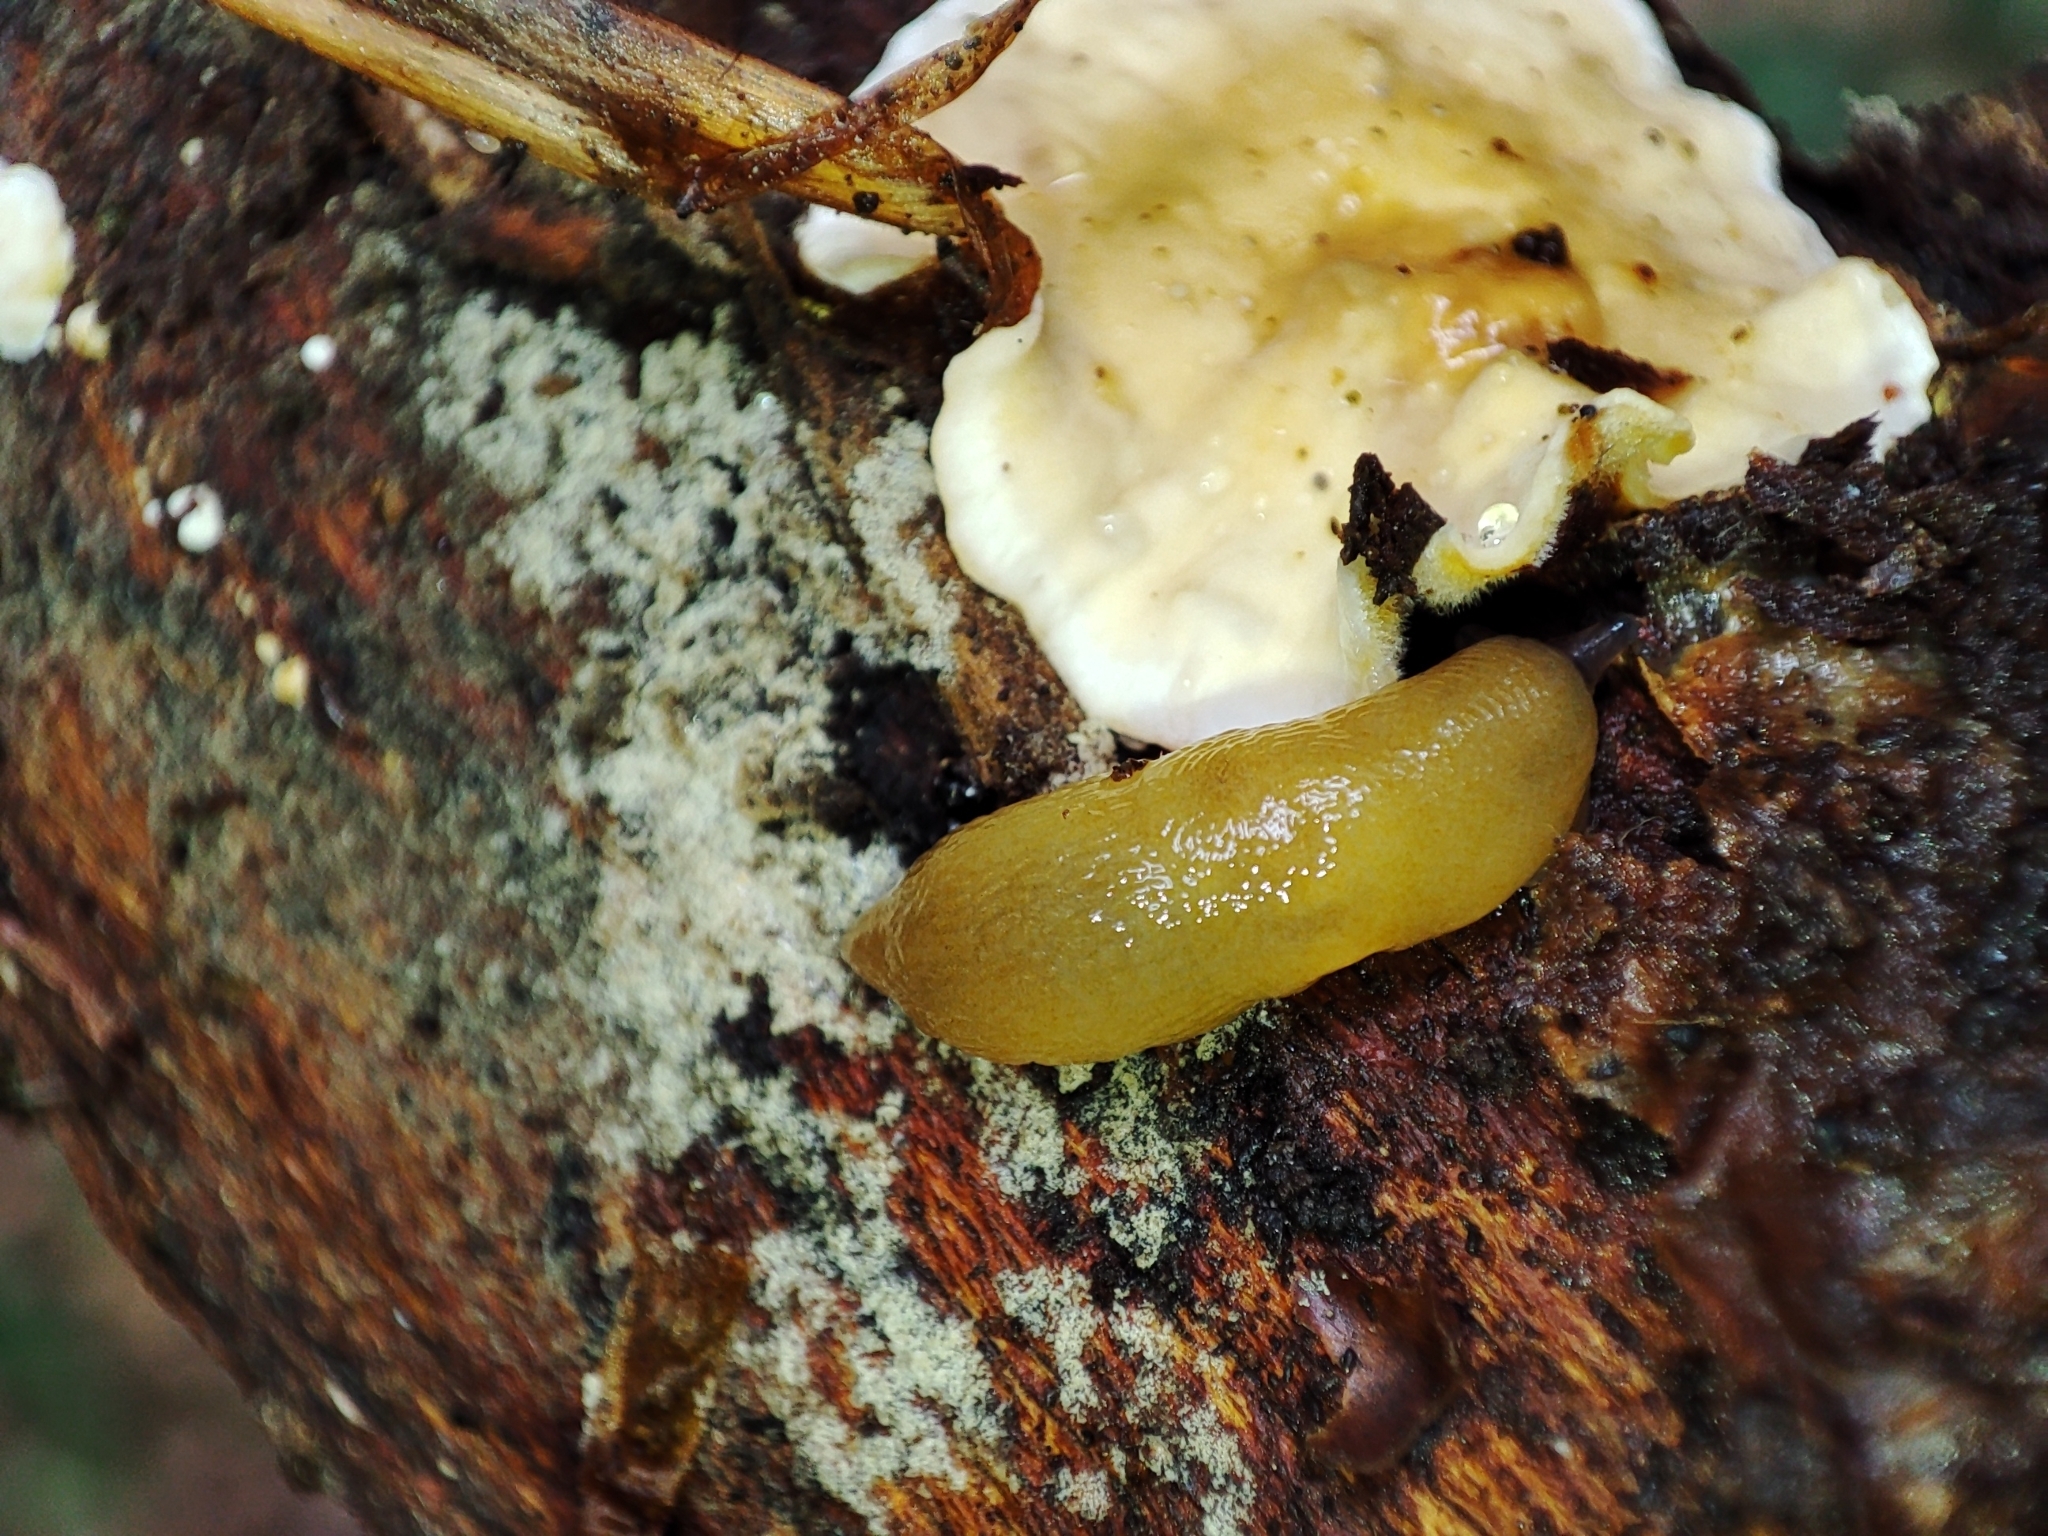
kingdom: Animalia
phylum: Mollusca
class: Gastropoda
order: Stylommatophora
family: Limacidae
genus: Malacolimax
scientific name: Malacolimax tenellus
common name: Lemon slug
